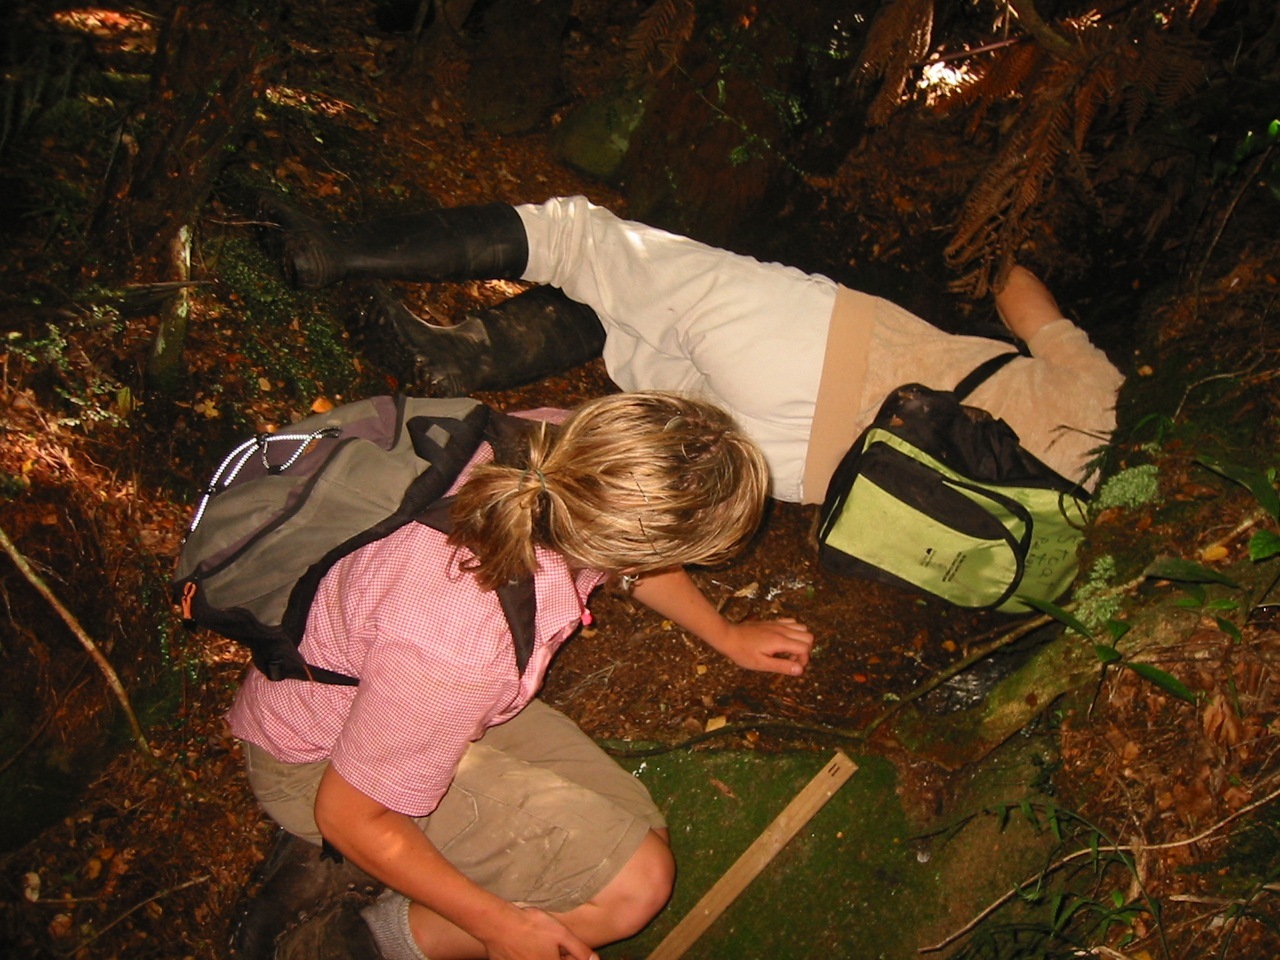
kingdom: Animalia
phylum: Chordata
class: Aves
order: Sphenisciformes
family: Spheniscidae
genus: Eudyptula
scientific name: Eudyptula minor
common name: Little penguin
